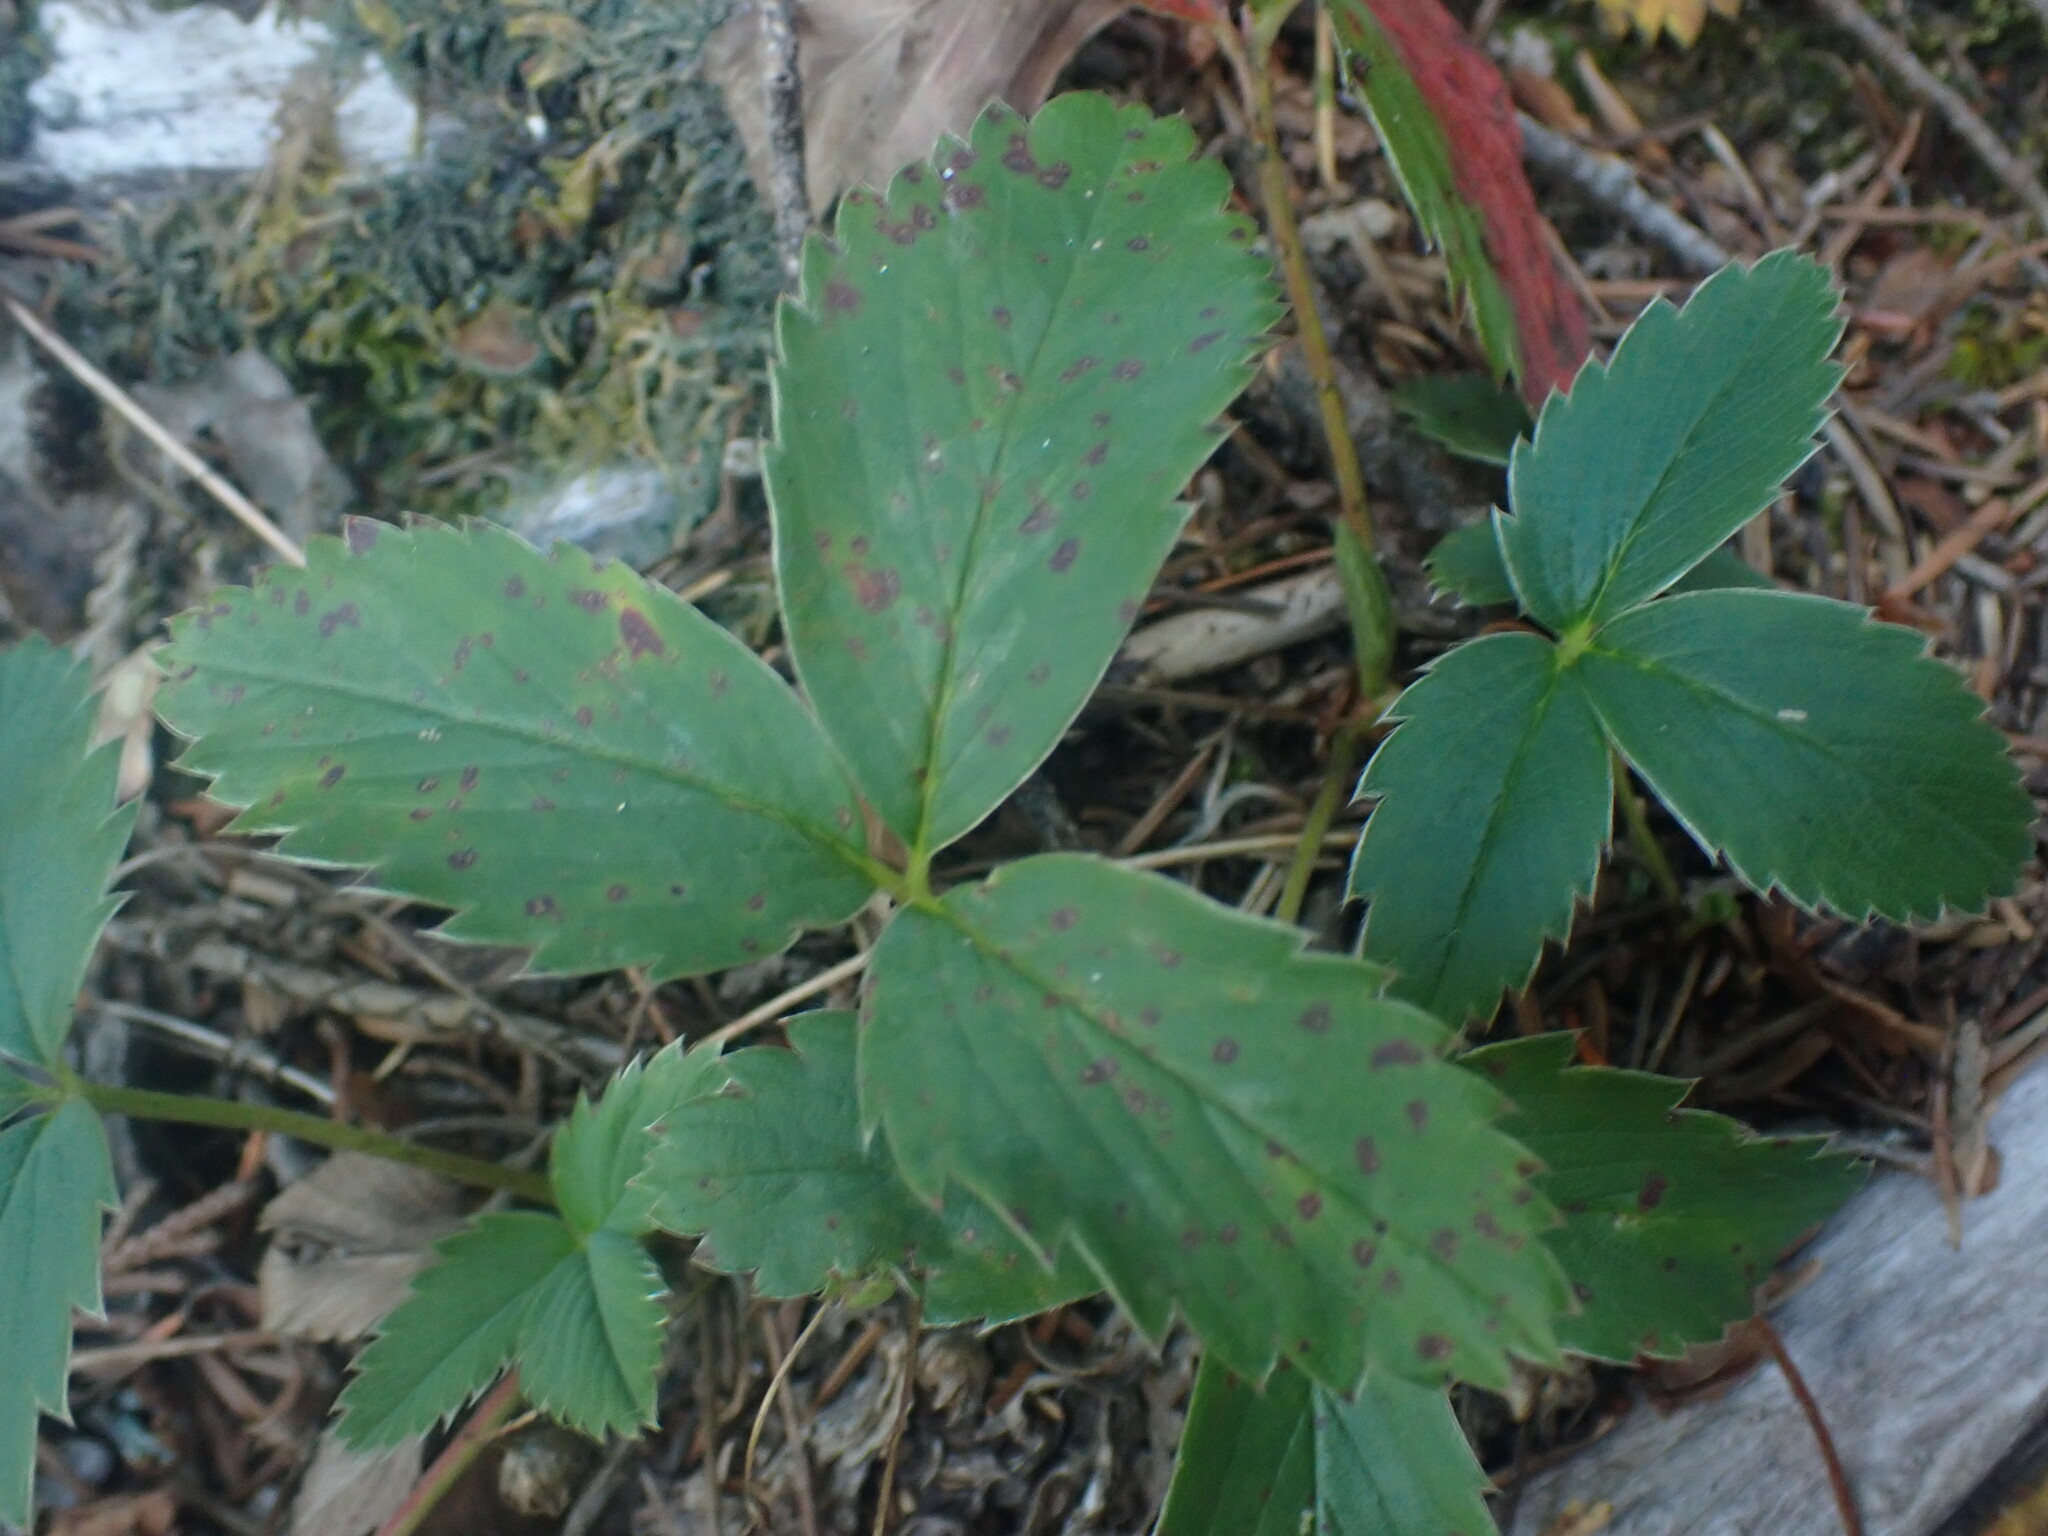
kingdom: Plantae
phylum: Tracheophyta
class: Magnoliopsida
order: Rosales
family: Rosaceae
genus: Fragaria
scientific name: Fragaria virginiana
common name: Thickleaved wild strawberry
